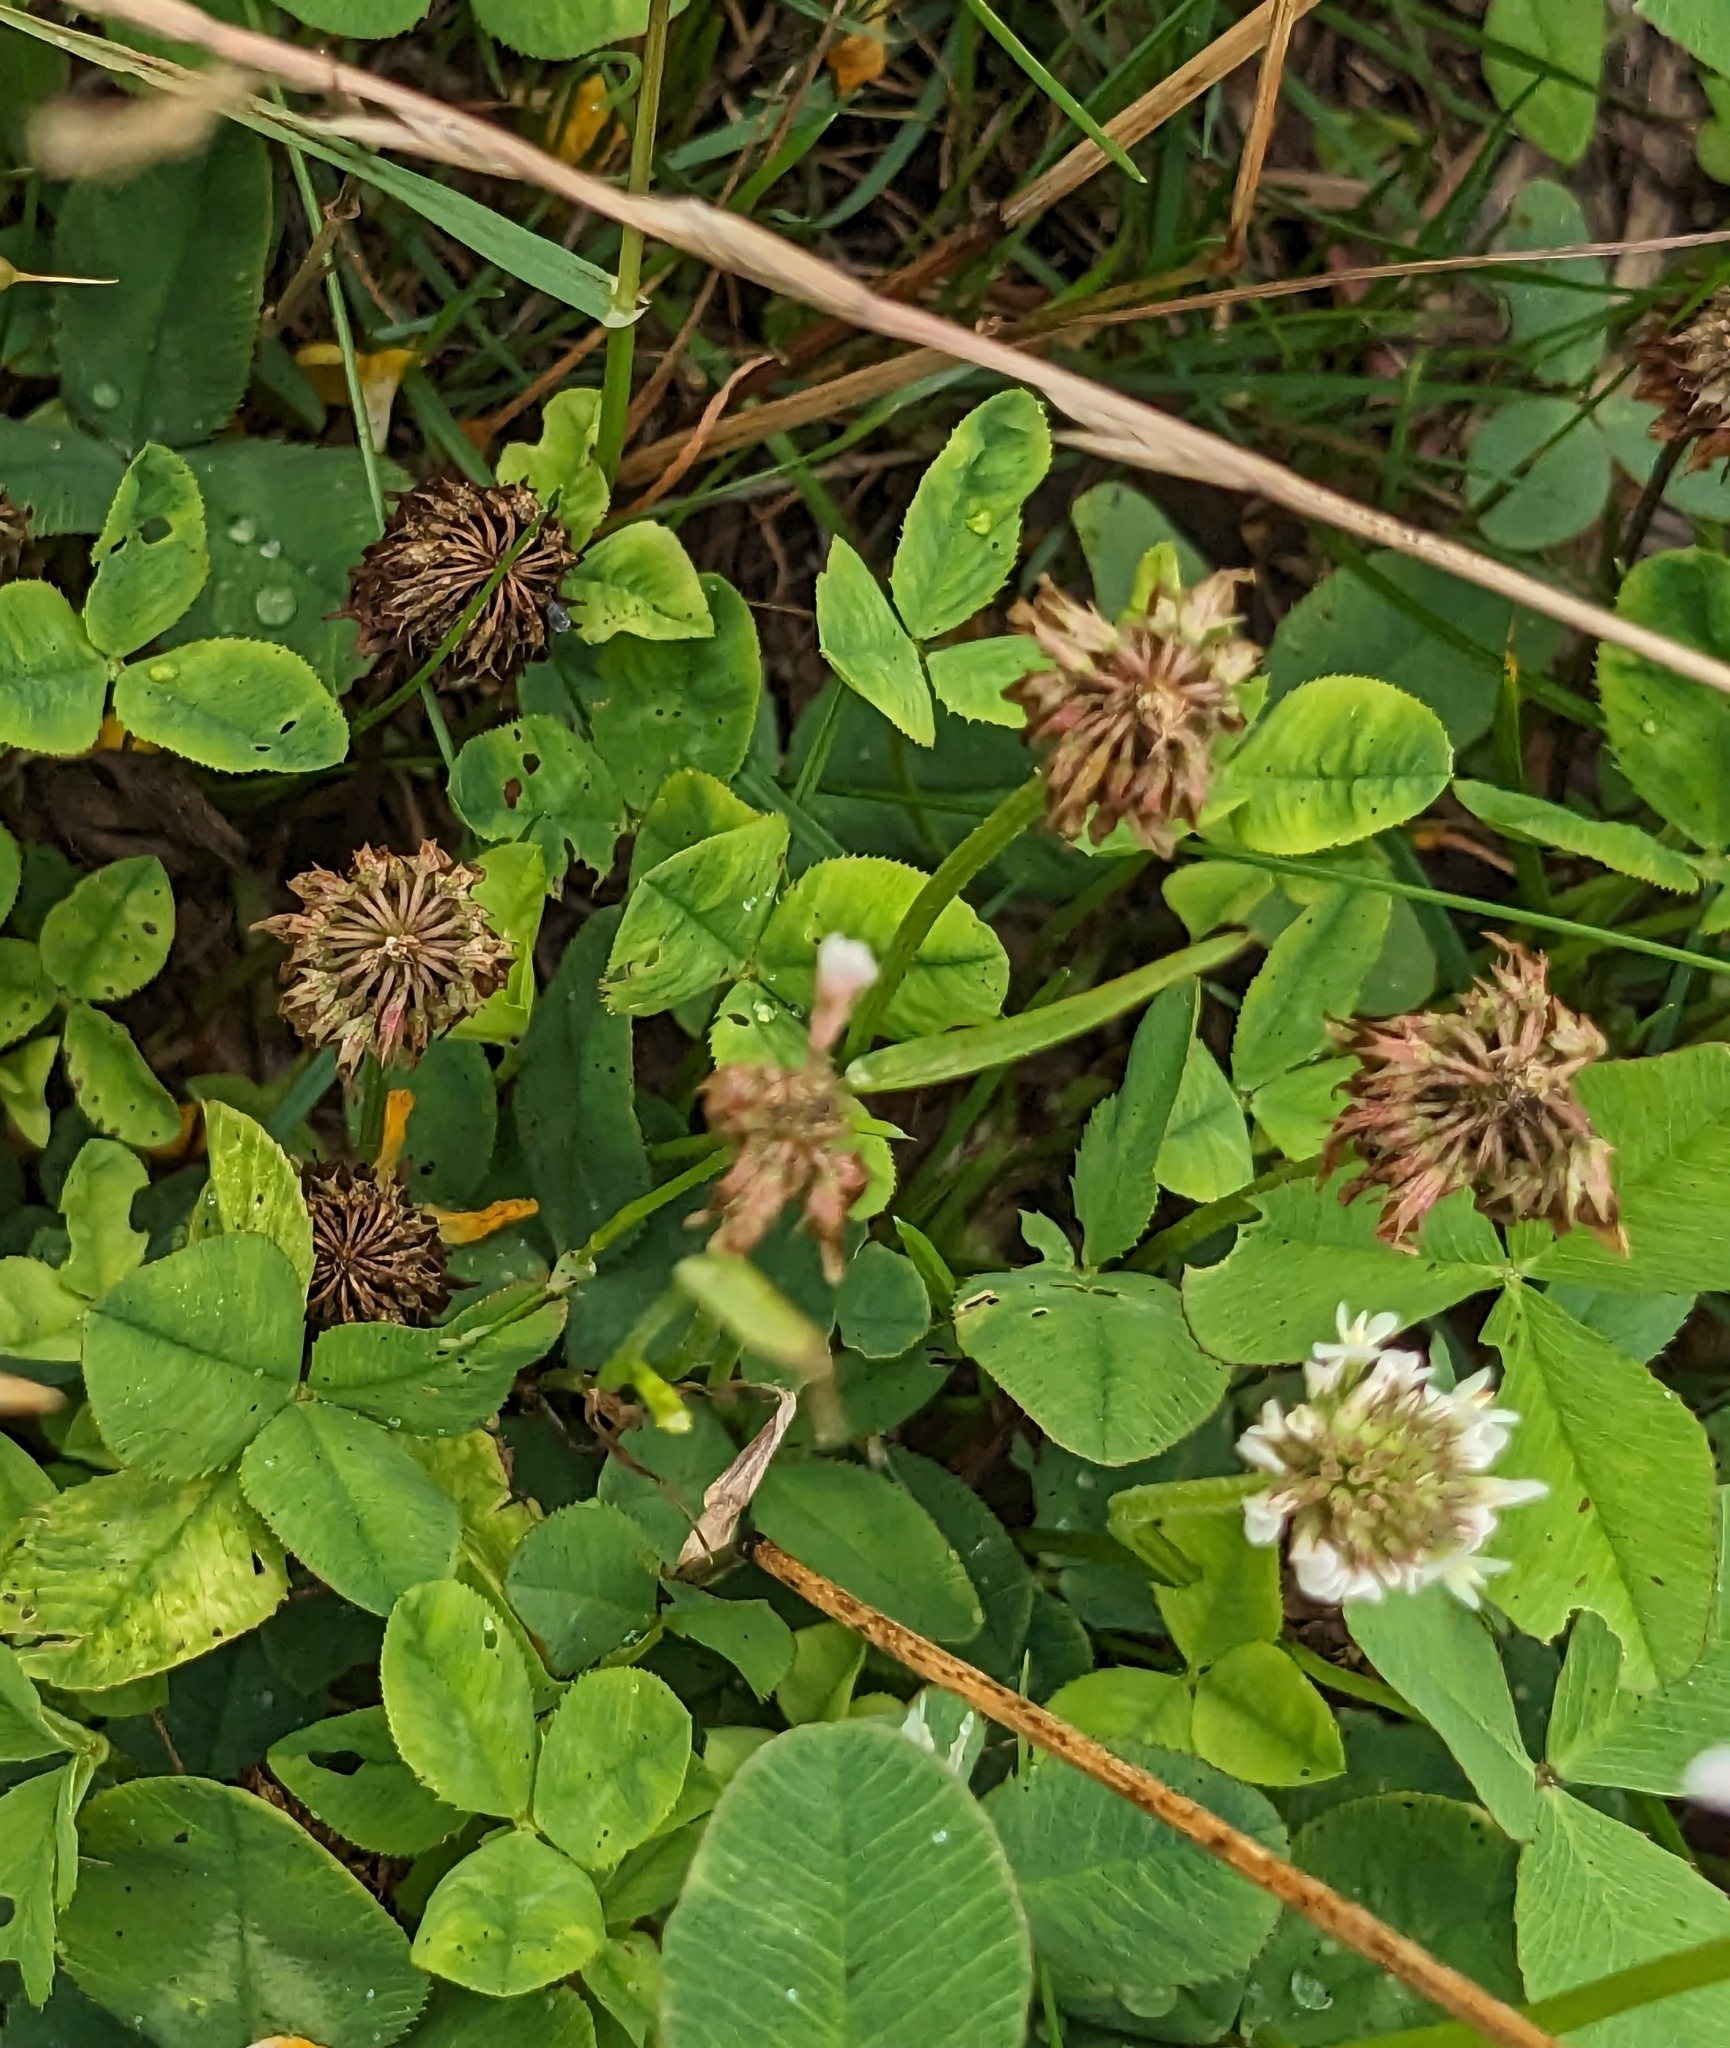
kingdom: Plantae
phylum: Tracheophyta
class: Magnoliopsida
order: Fabales
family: Fabaceae
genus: Trifolium
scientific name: Trifolium repens
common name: White clover
